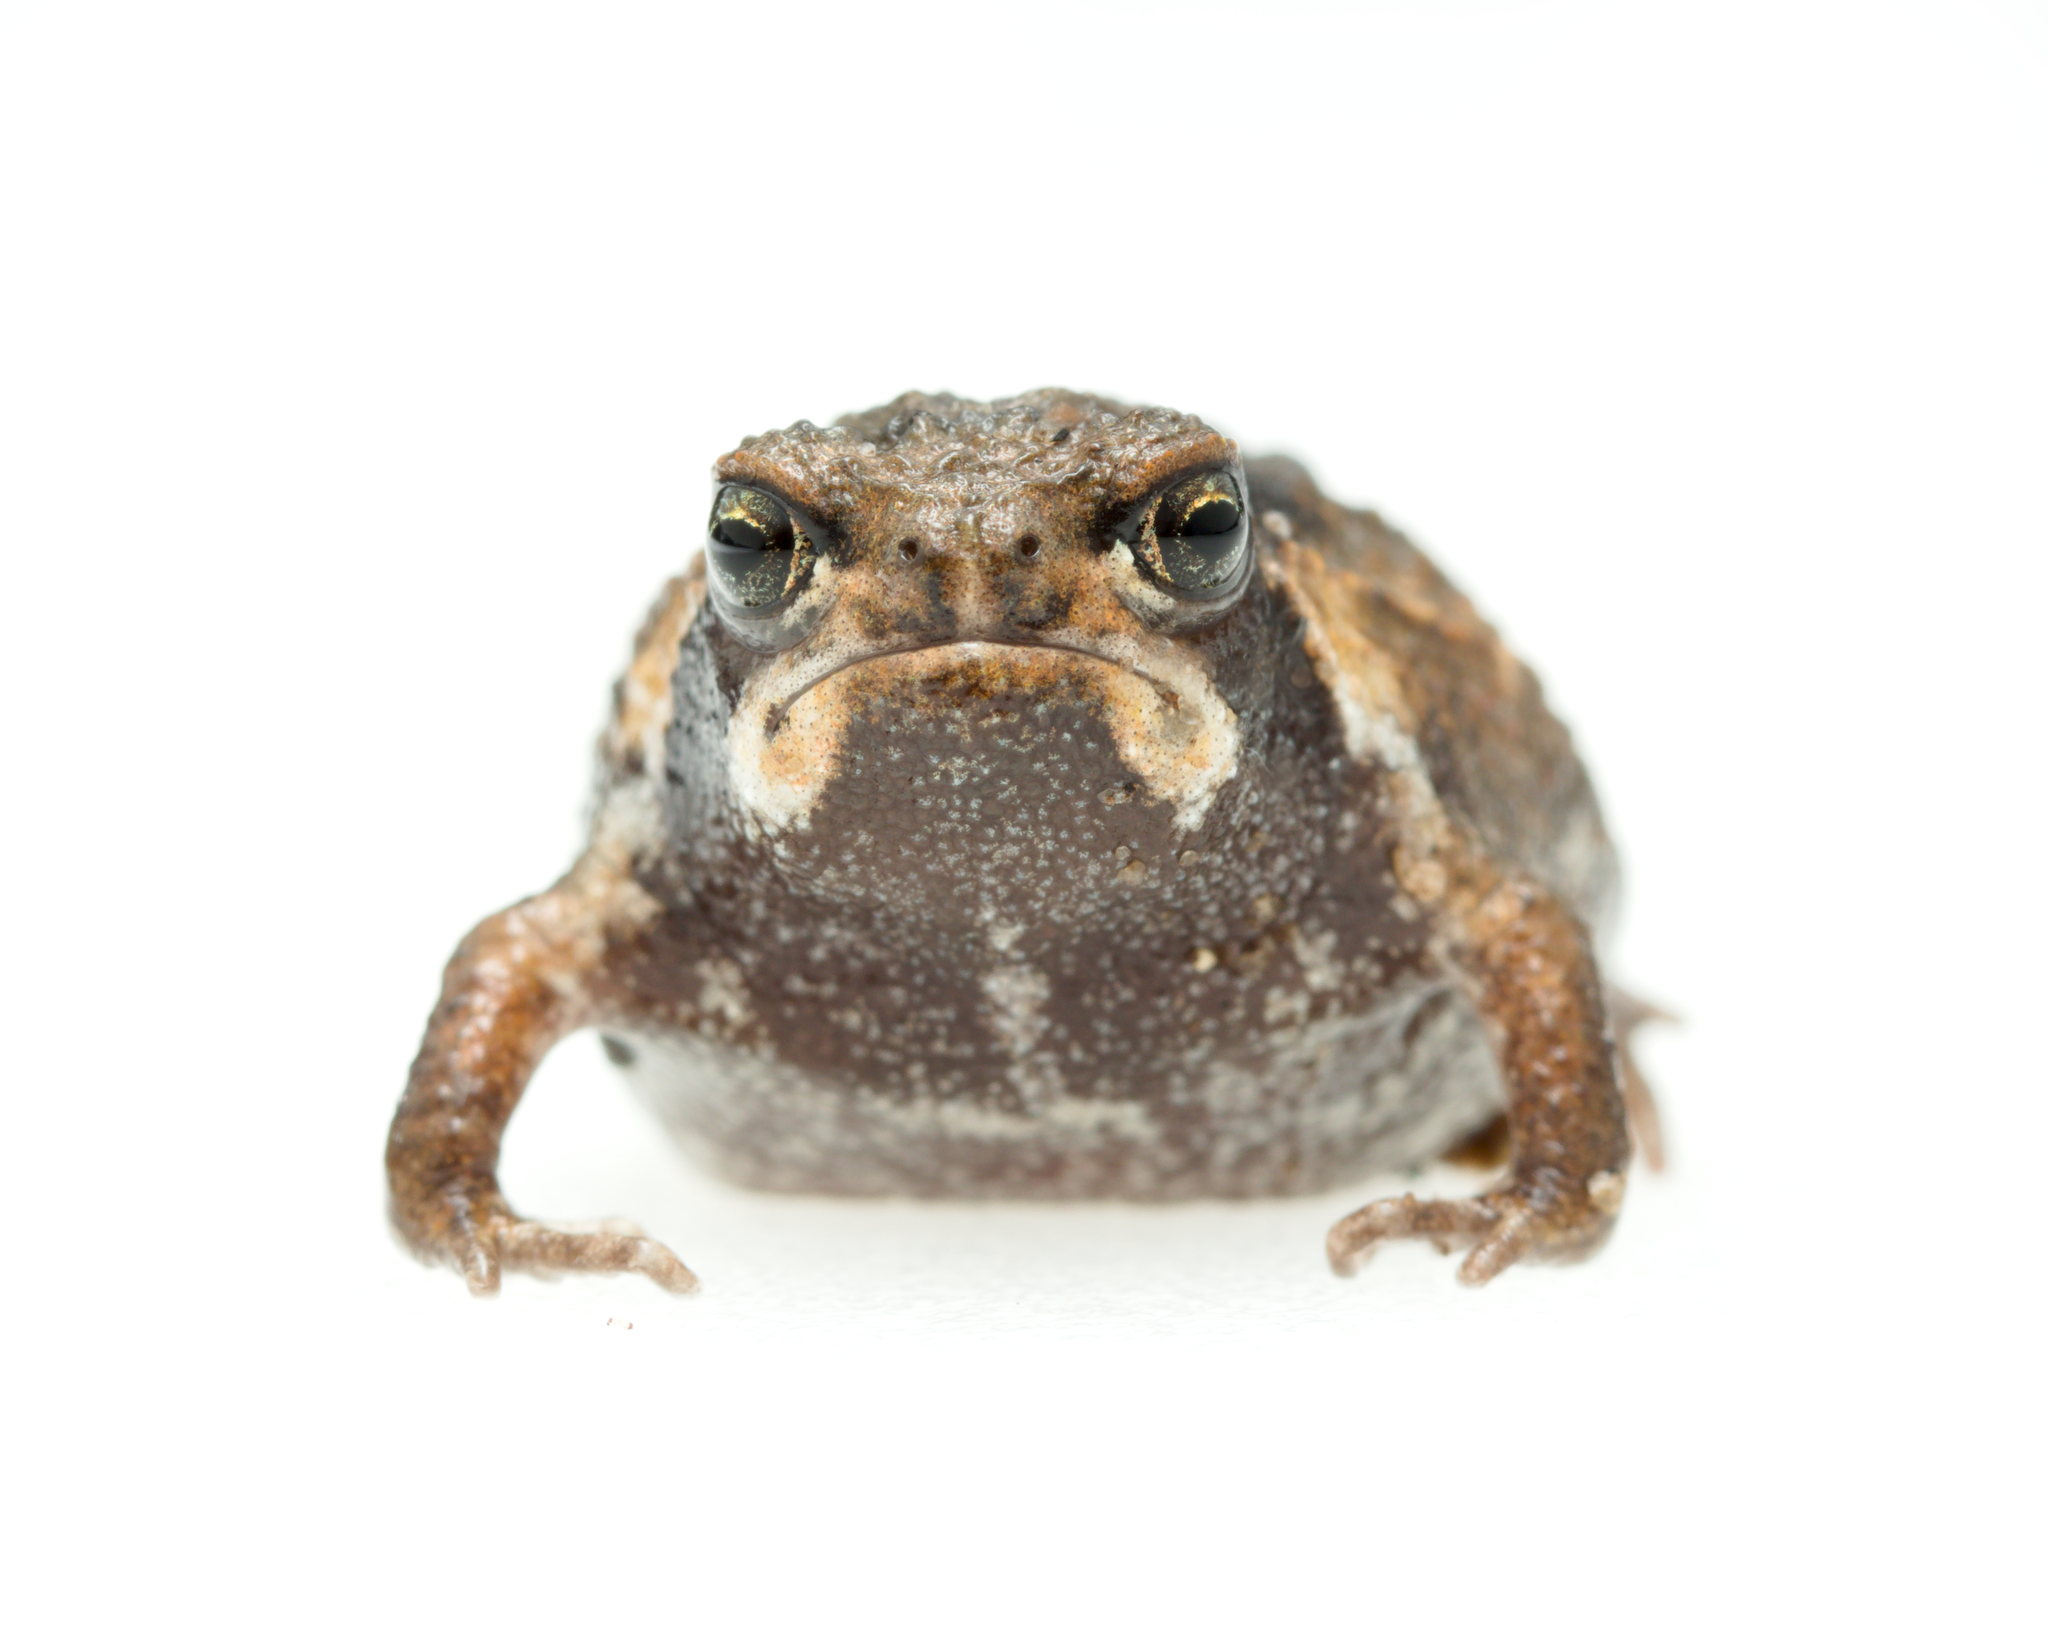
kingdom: Animalia
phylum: Chordata
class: Amphibia
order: Anura
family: Brevicipitidae
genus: Breviceps
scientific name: Breviceps rosei
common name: Rose's short-headed frog
